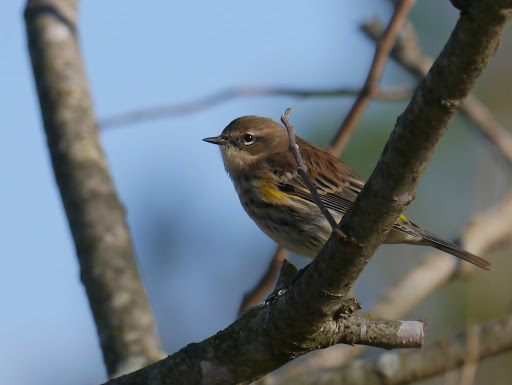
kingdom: Animalia
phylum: Chordata
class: Aves
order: Passeriformes
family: Parulidae
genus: Setophaga
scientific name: Setophaga coronata
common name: Myrtle warbler
